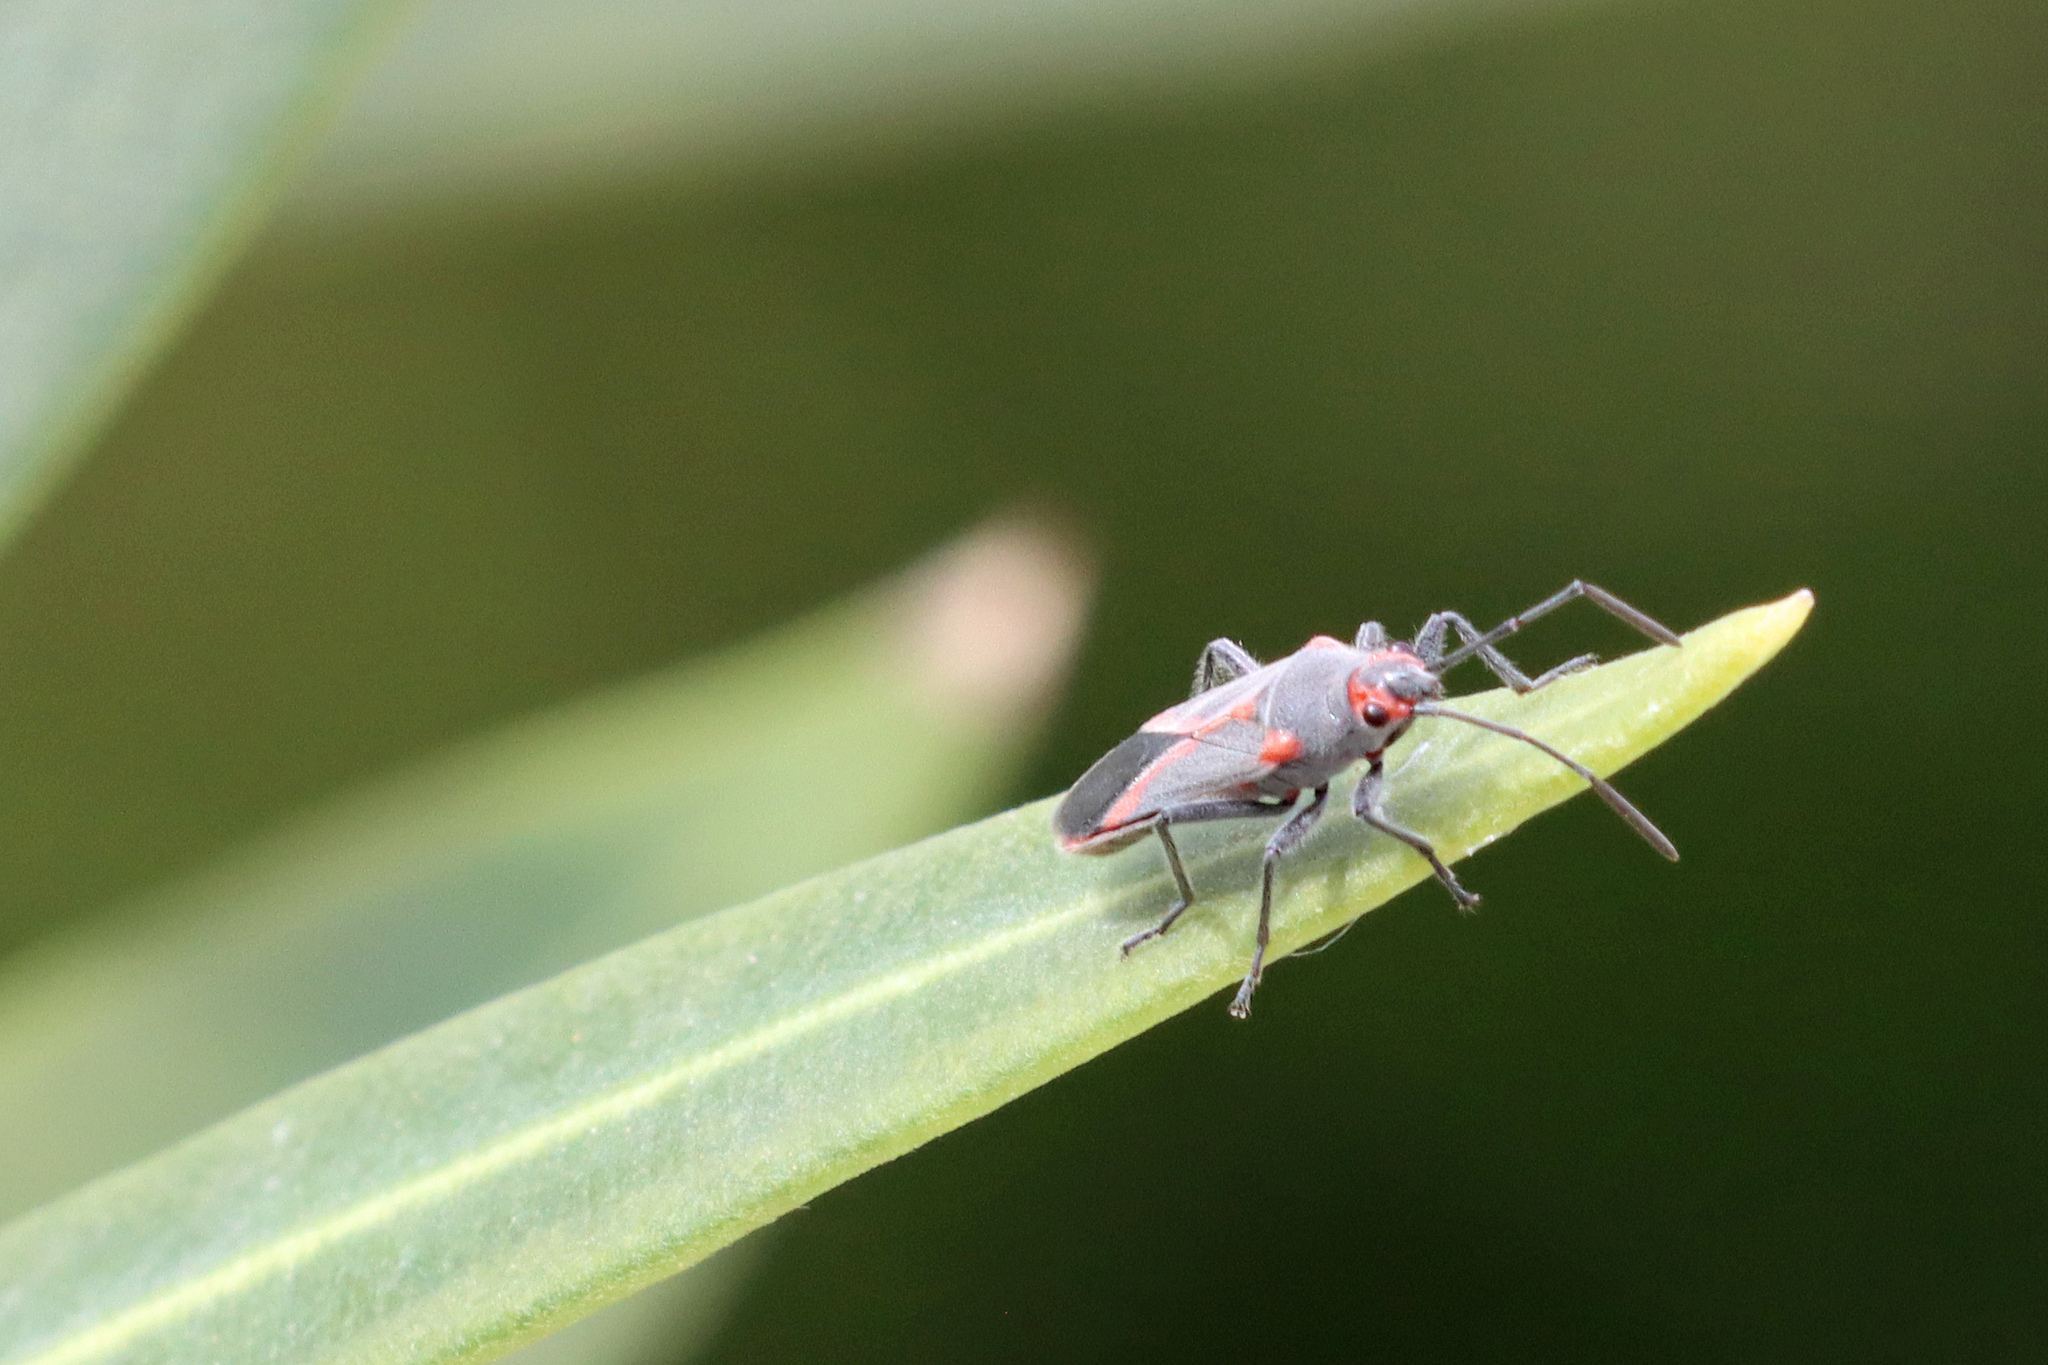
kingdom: Animalia
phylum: Arthropoda
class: Insecta
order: Hemiptera
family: Lygaeidae
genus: Caenocoris
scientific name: Caenocoris nerii
